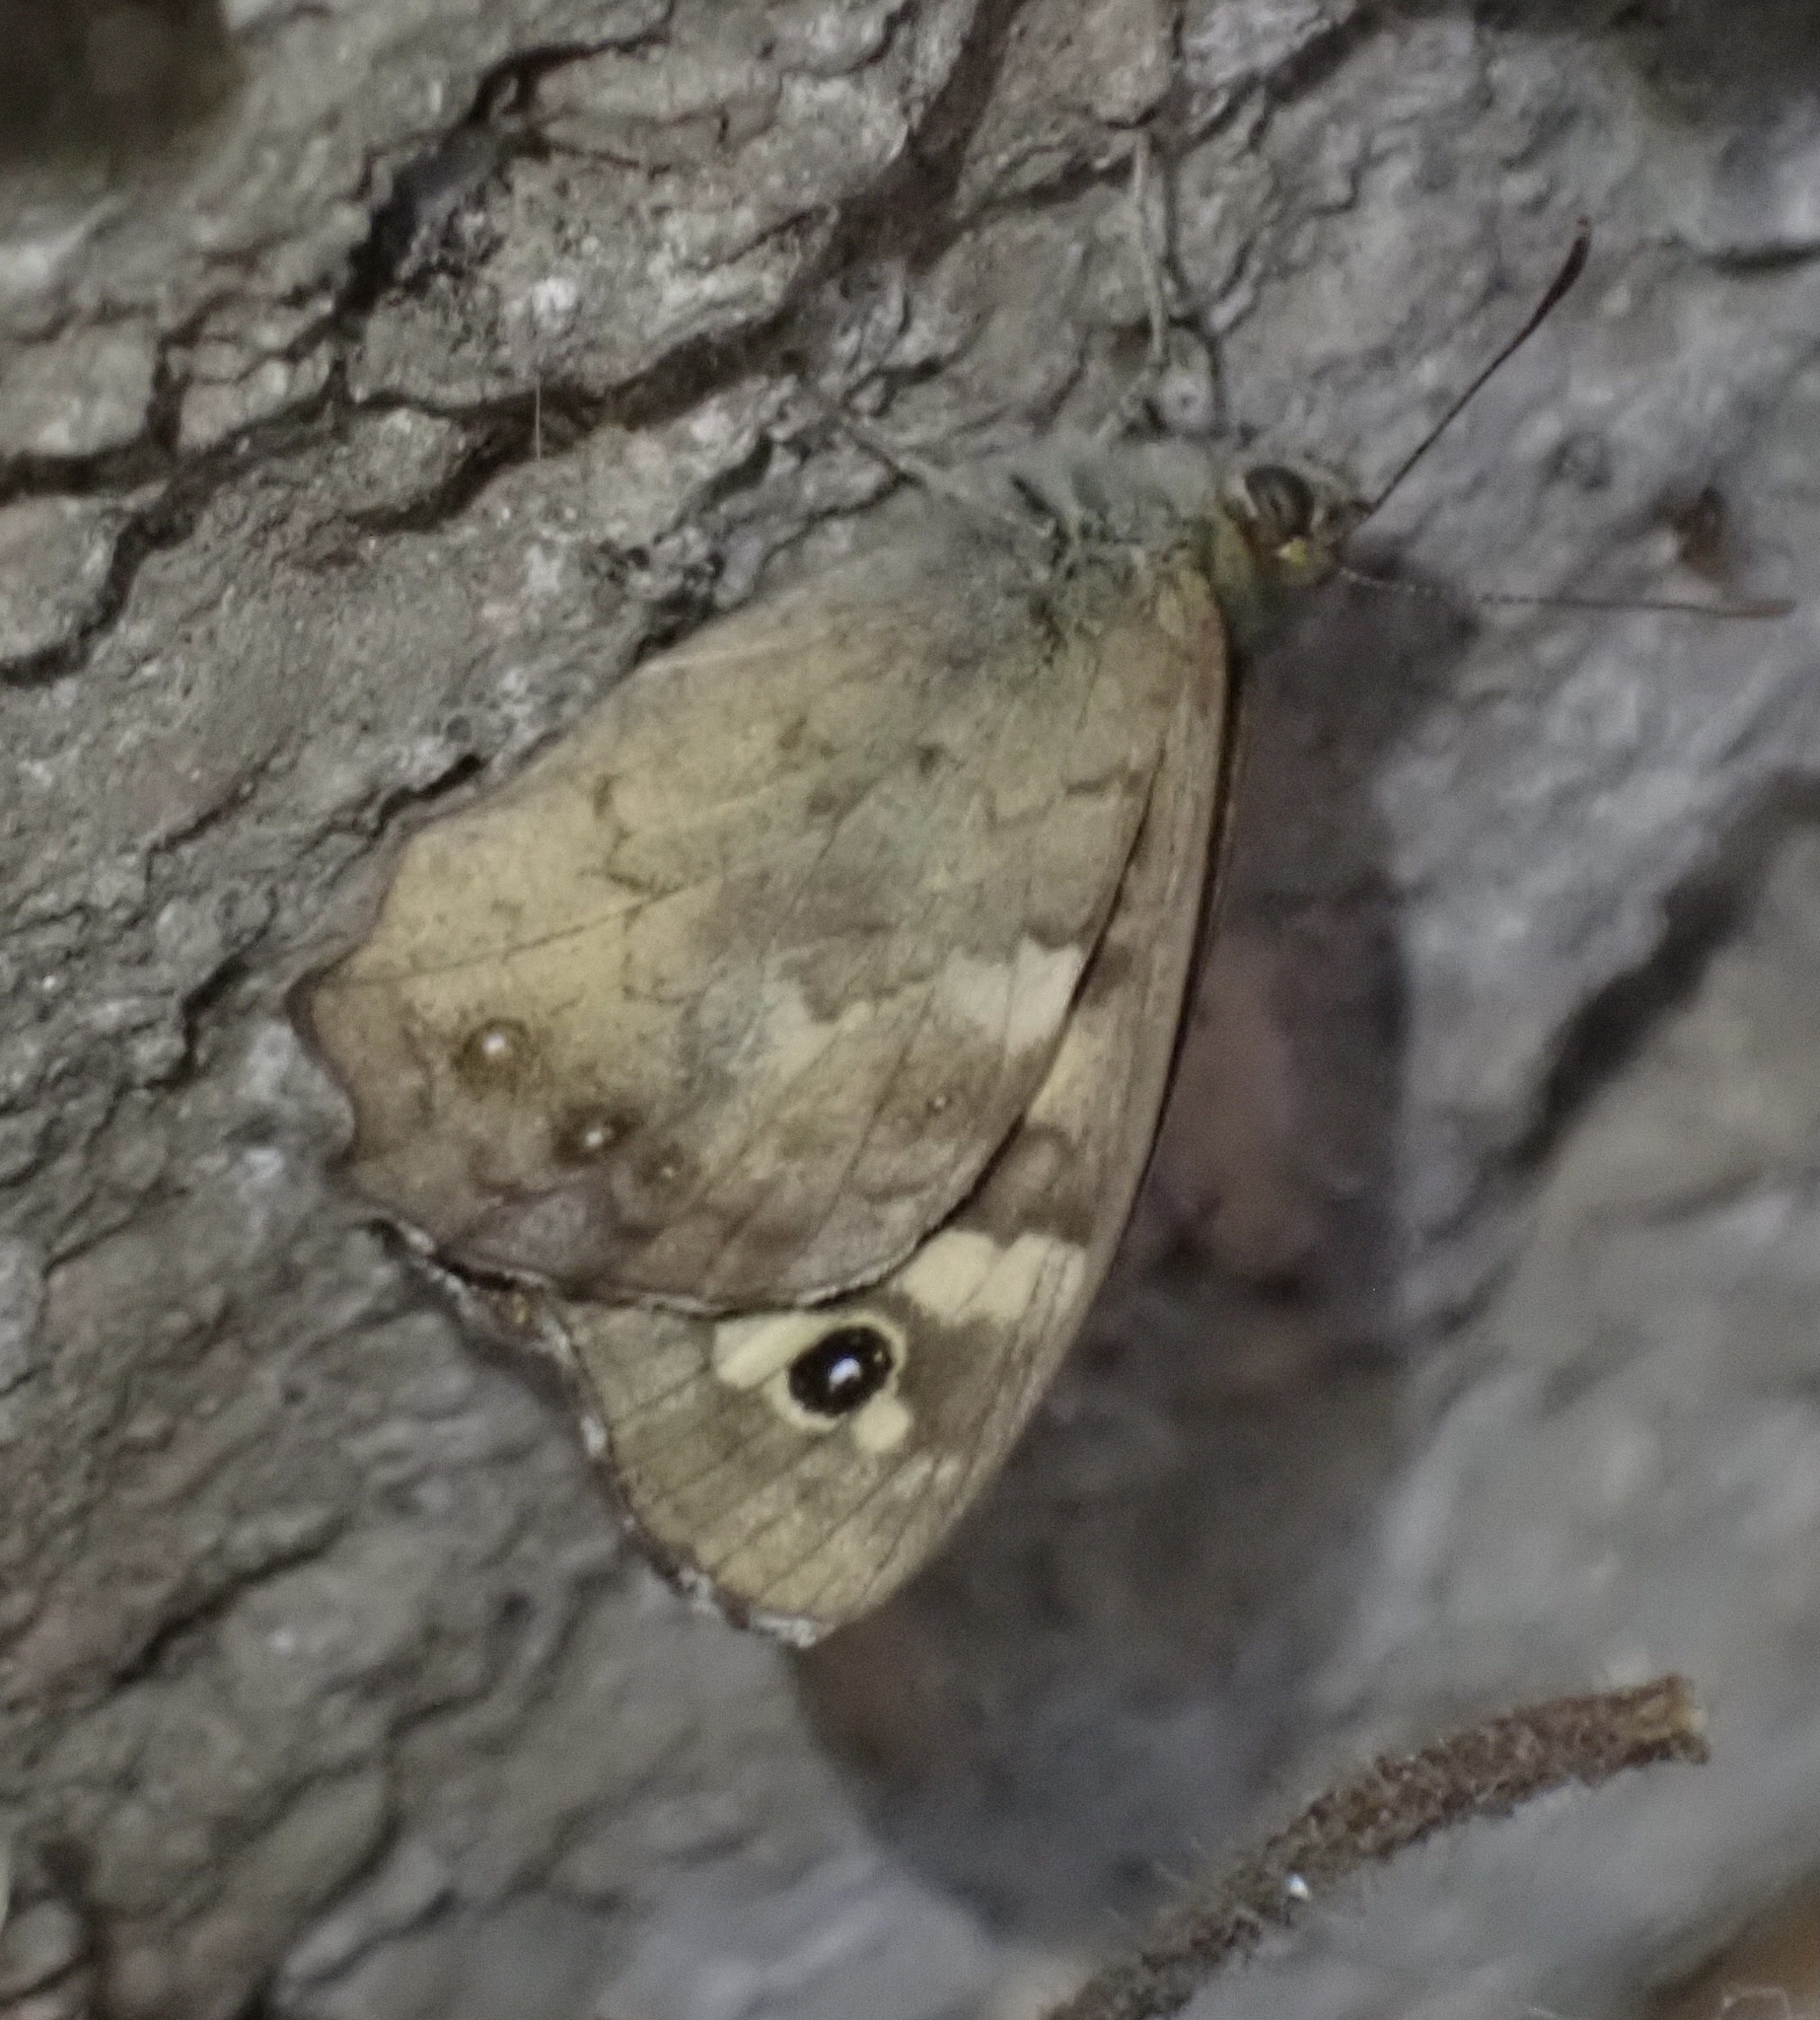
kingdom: Animalia
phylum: Arthropoda
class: Insecta
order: Lepidoptera
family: Nymphalidae
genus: Pararge
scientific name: Pararge aegeria
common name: Speckled wood
